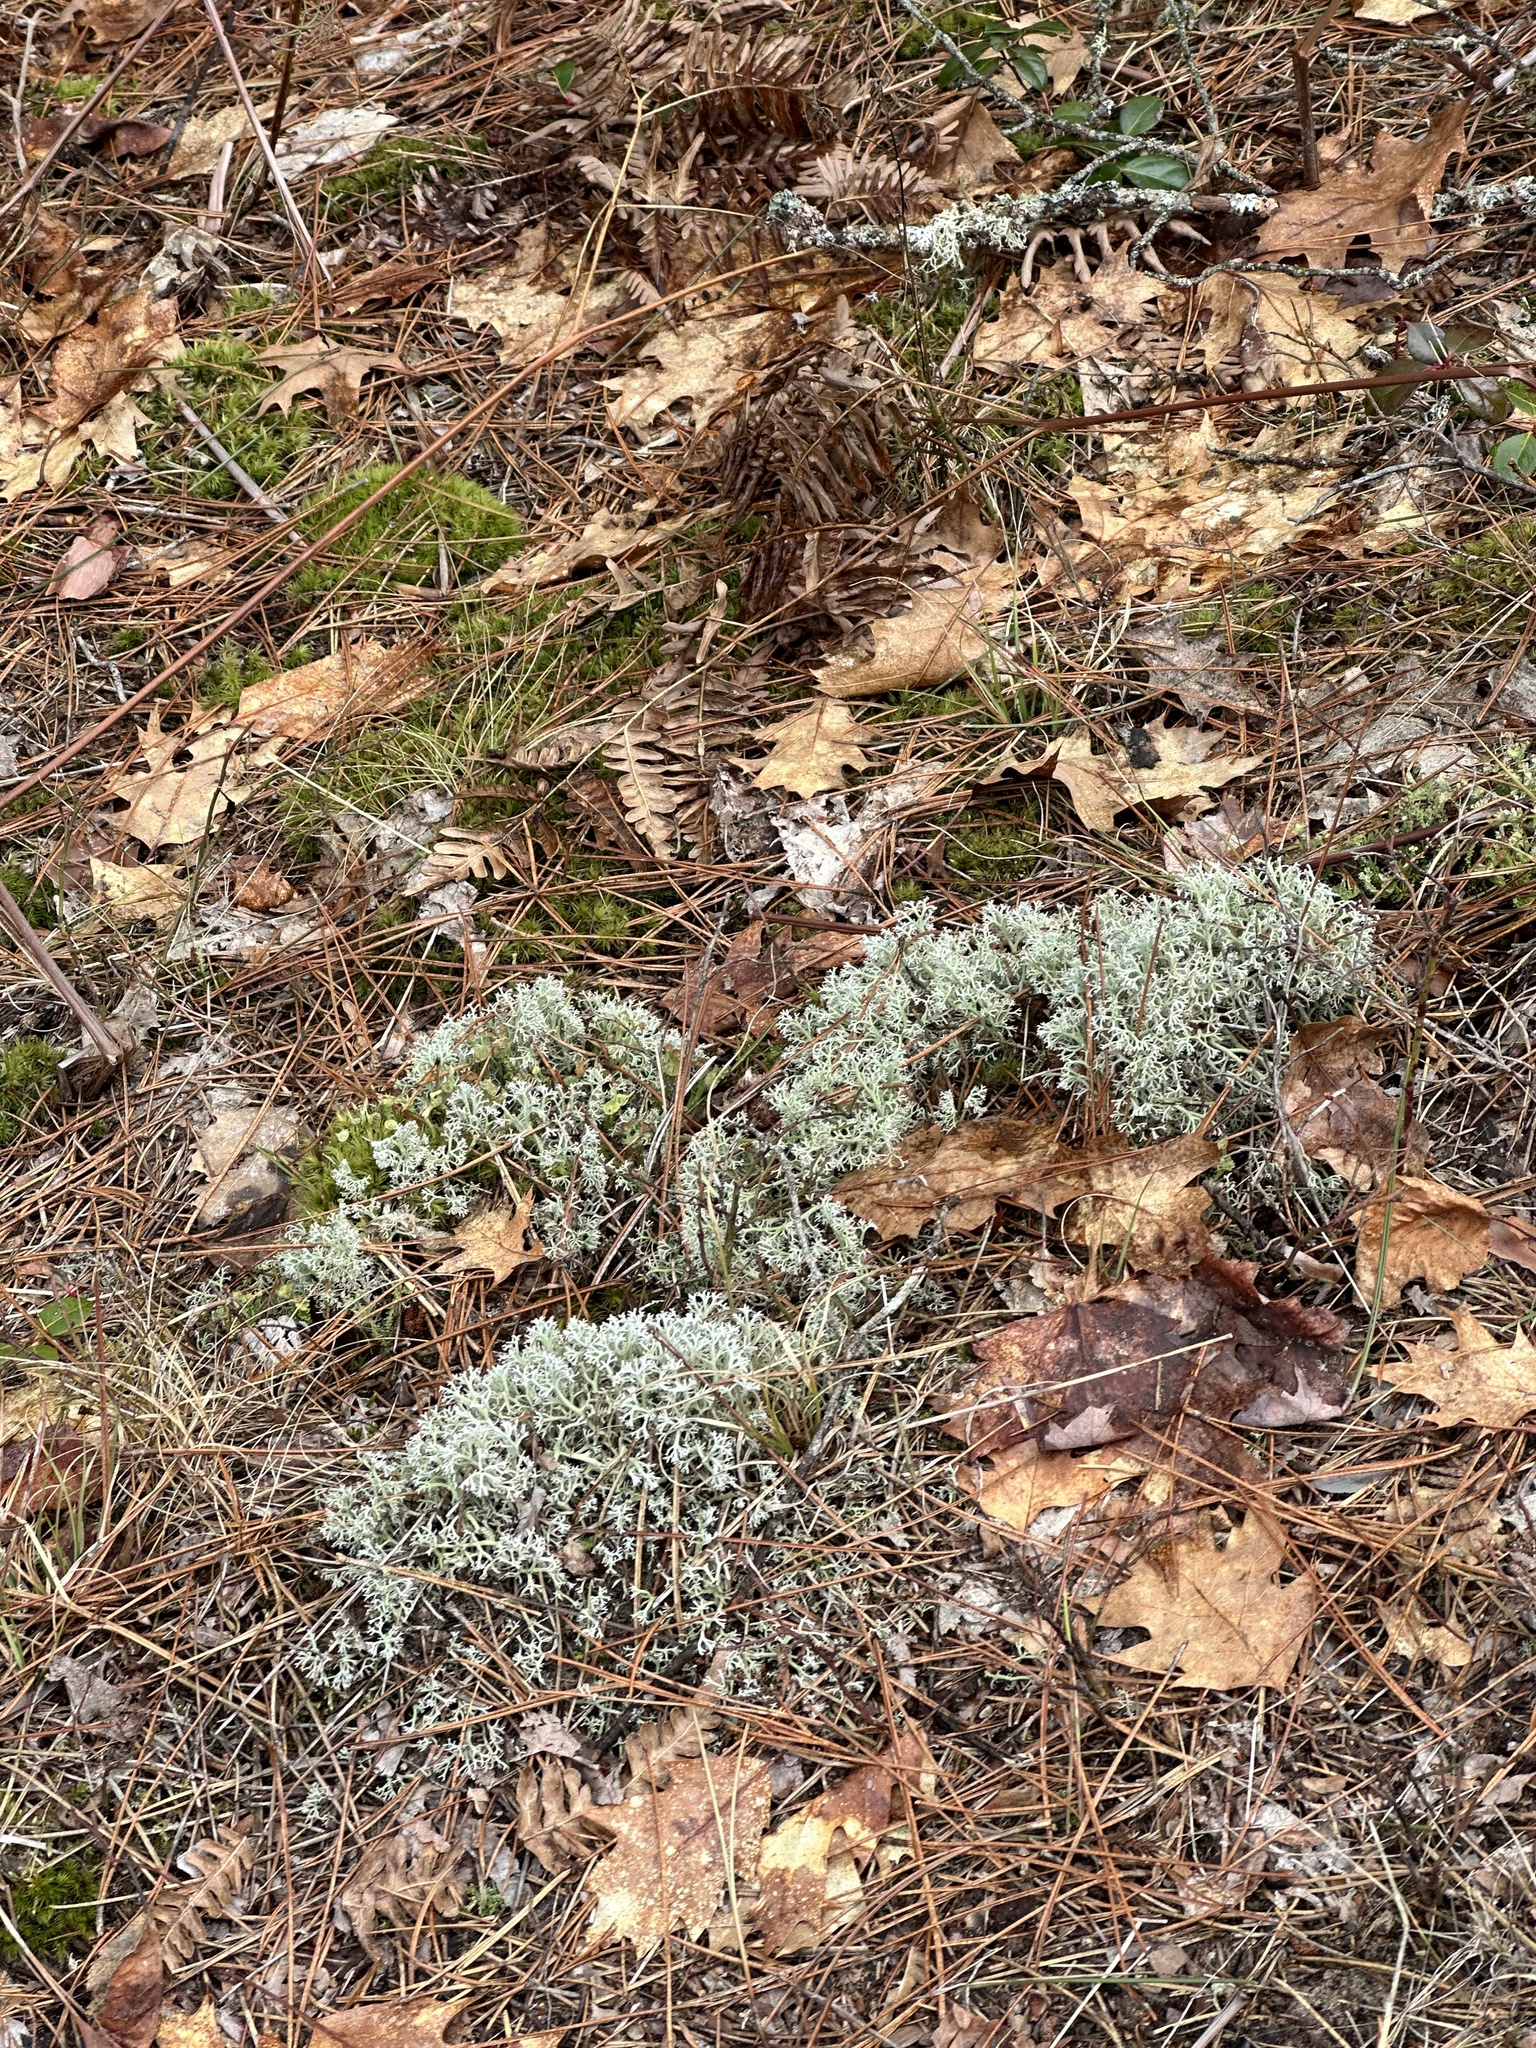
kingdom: Fungi
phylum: Ascomycota
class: Lecanoromycetes
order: Lecanorales
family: Cladoniaceae
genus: Cladonia
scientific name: Cladonia rangiferina
